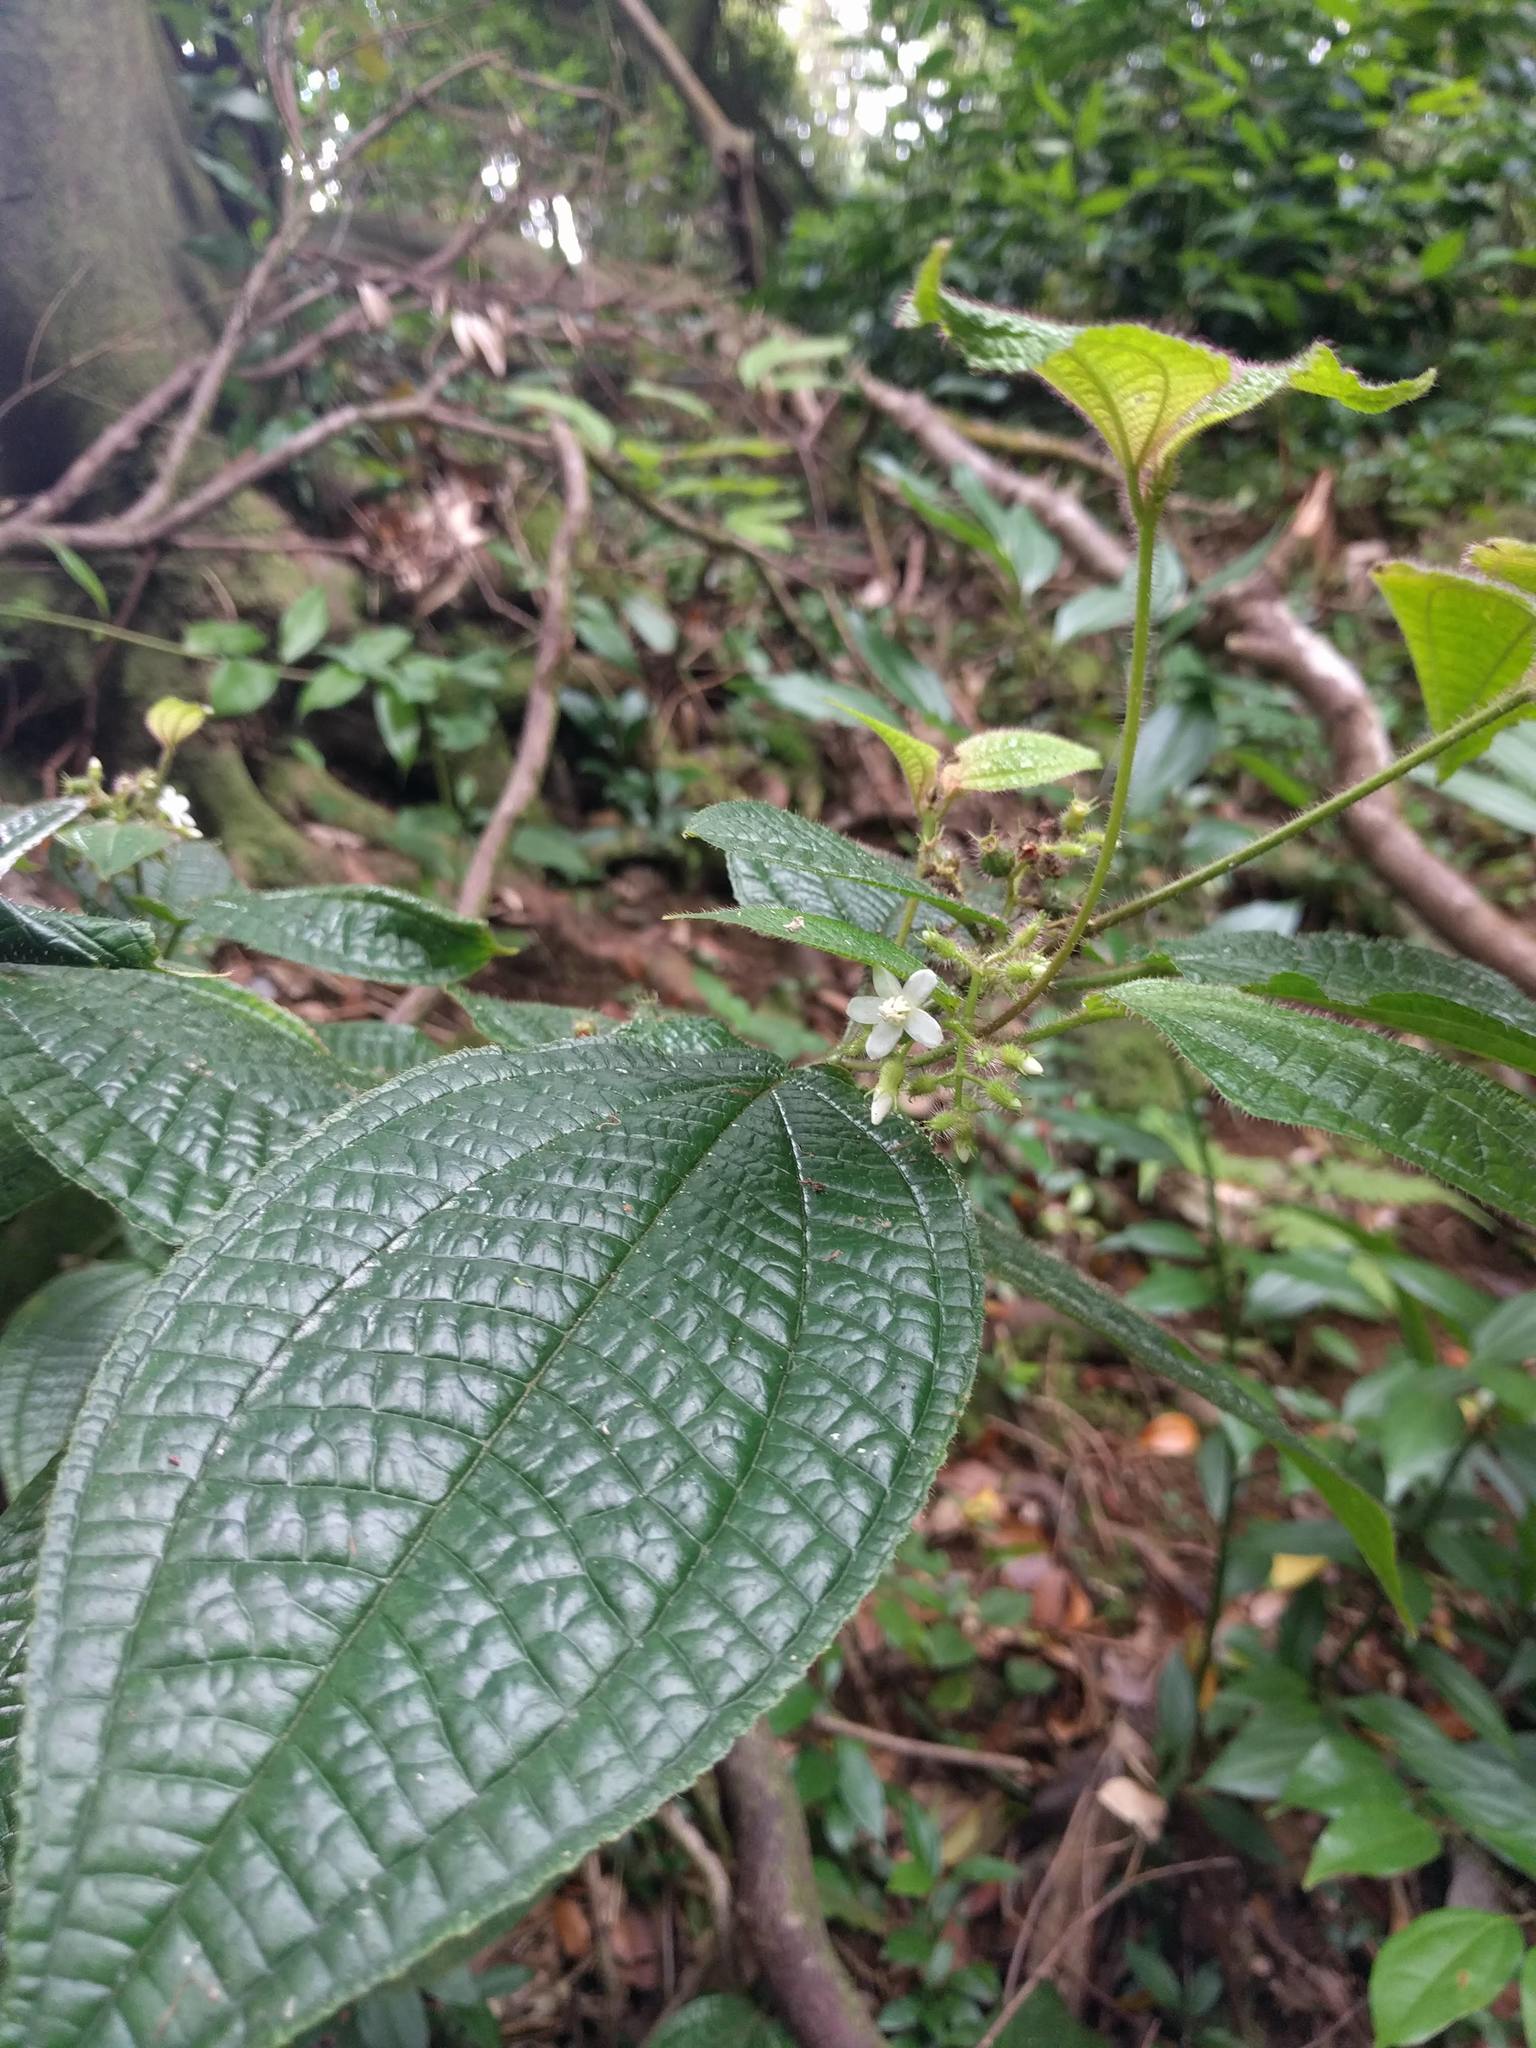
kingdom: Plantae
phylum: Tracheophyta
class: Magnoliopsida
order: Myrtales
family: Melastomataceae
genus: Miconia
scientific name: Miconia crenata
